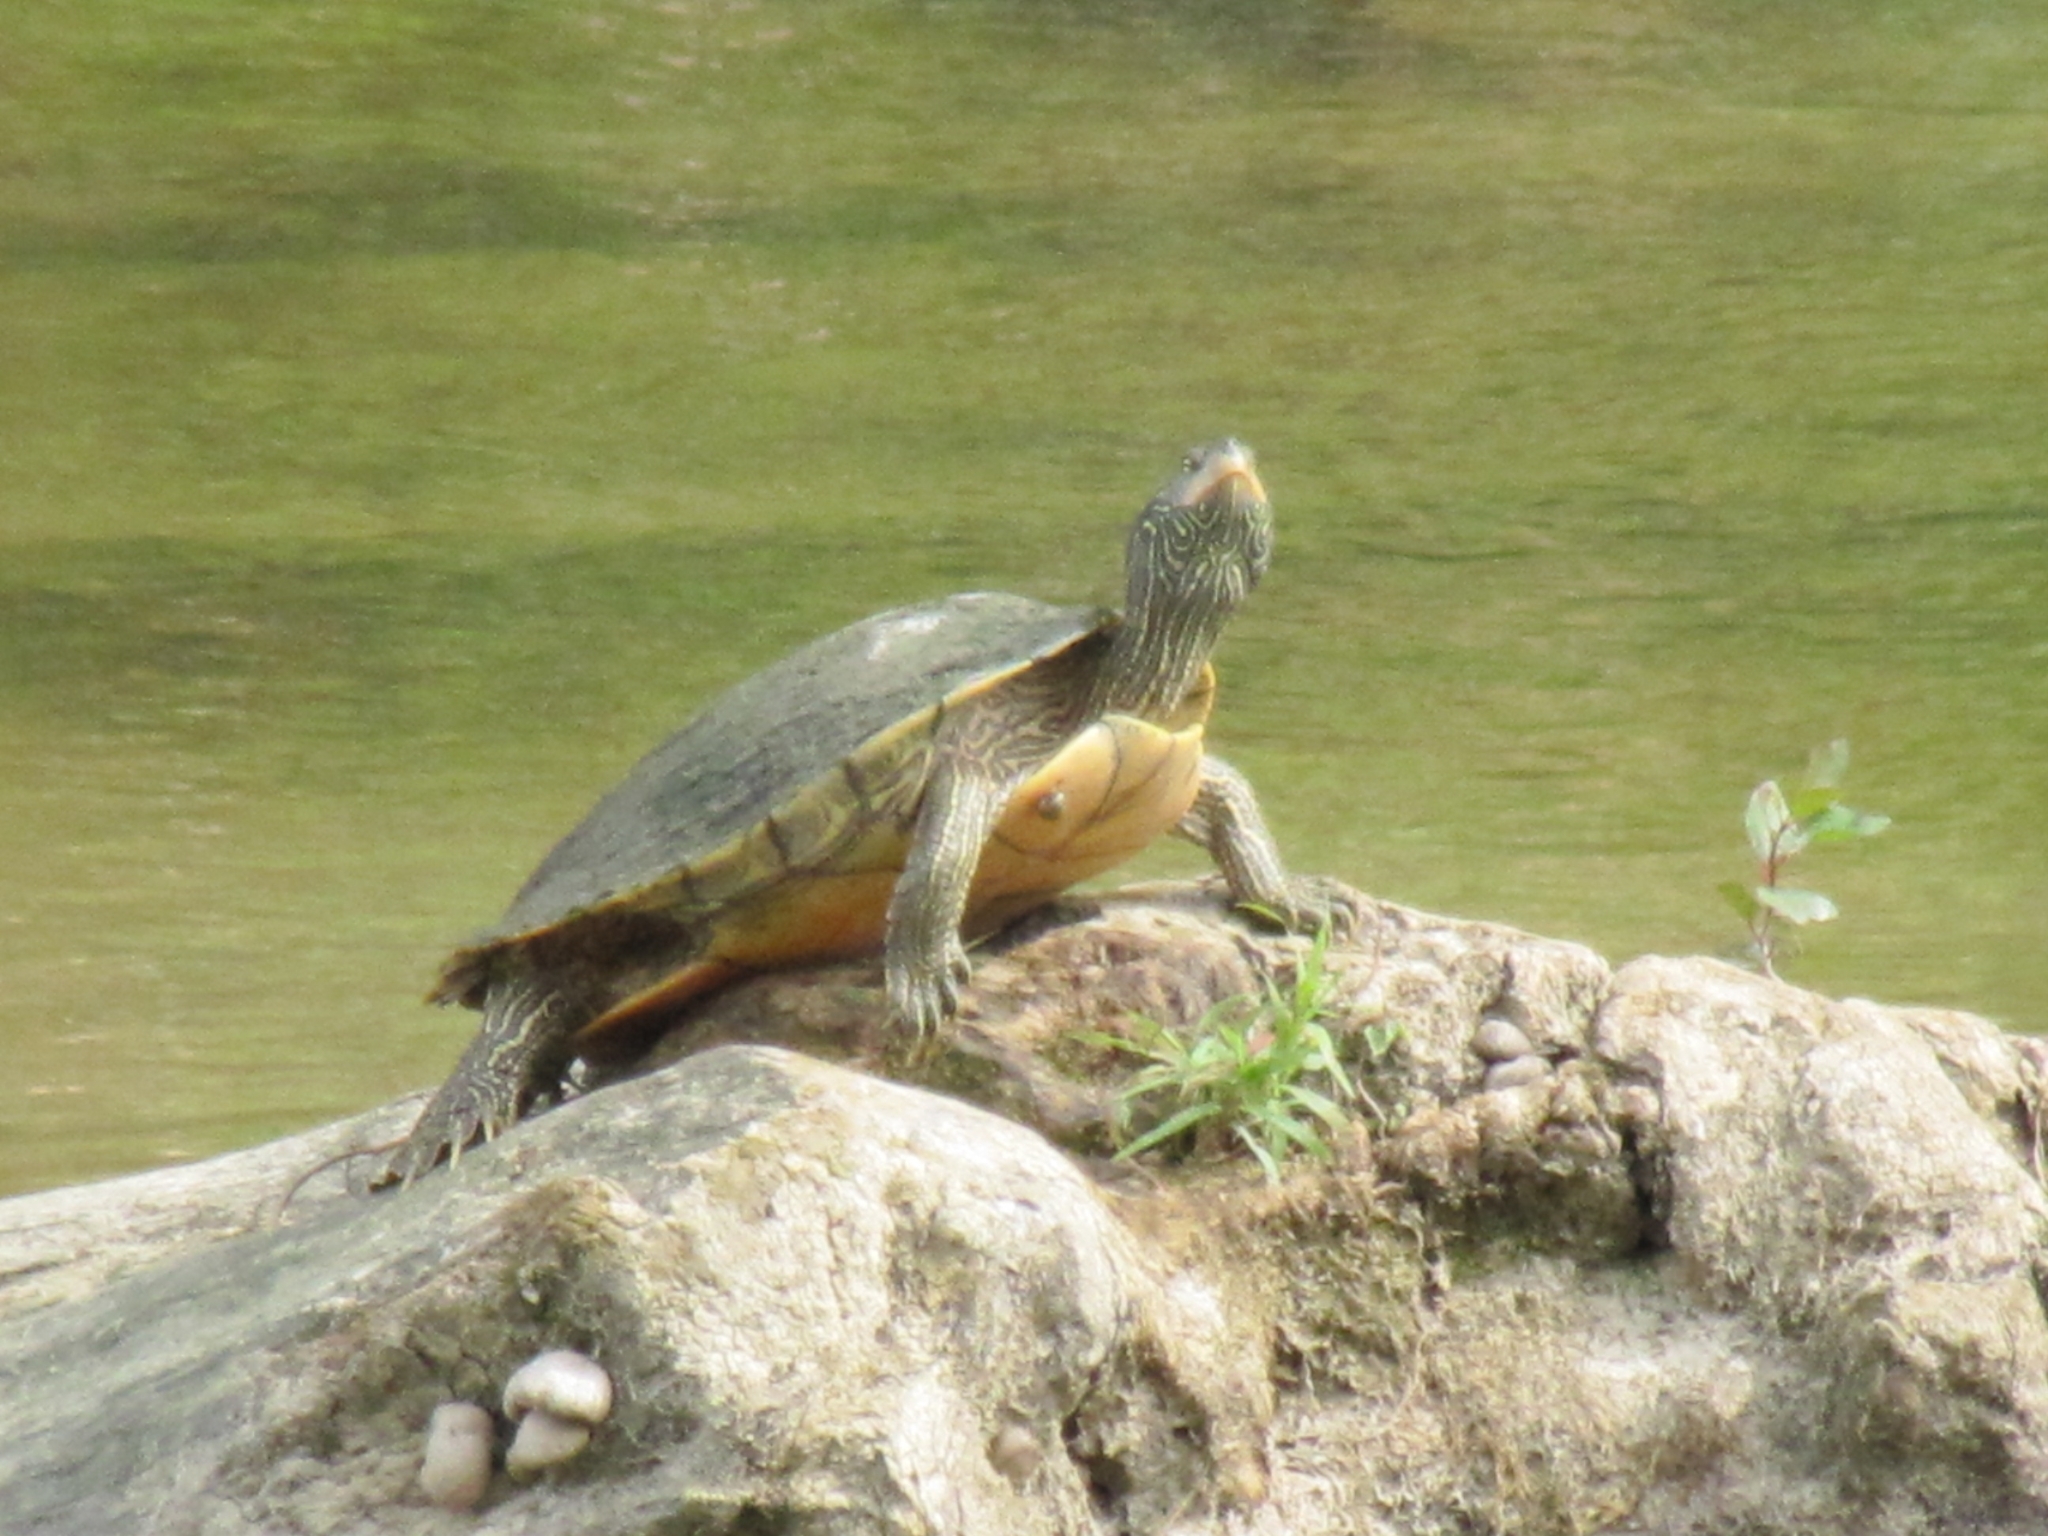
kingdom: Animalia
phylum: Chordata
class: Testudines
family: Emydidae
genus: Graptemys
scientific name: Graptemys geographica
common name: Common map turtle
